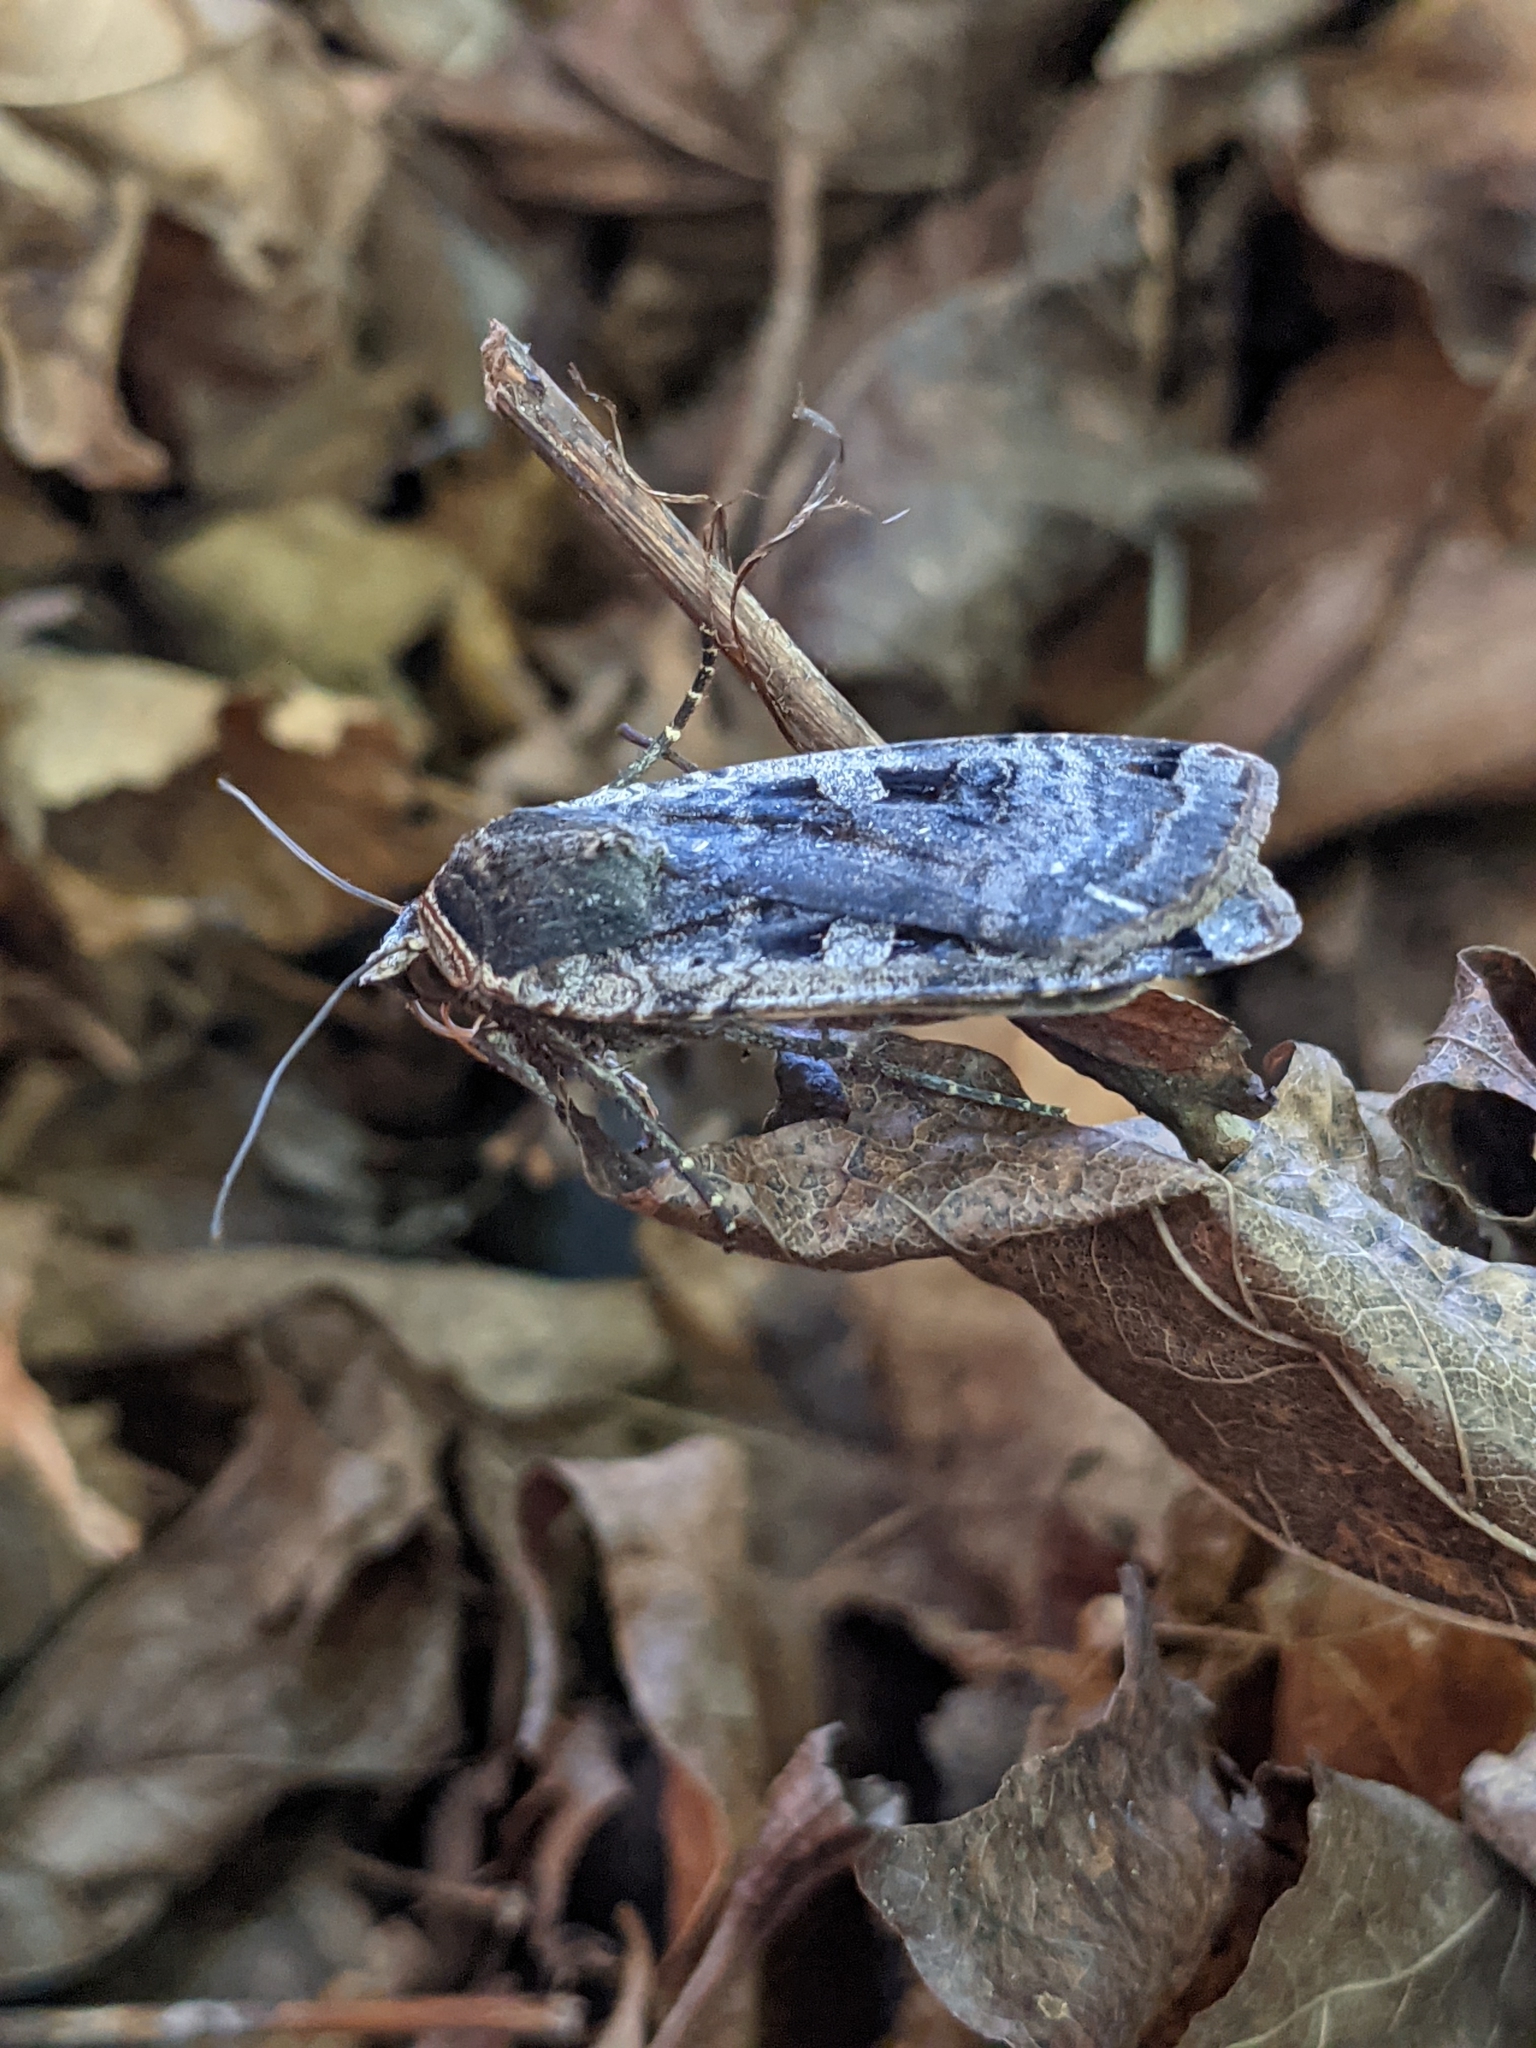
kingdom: Animalia
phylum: Arthropoda
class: Insecta
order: Lepidoptera
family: Noctuidae
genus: Noctua
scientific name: Noctua pronuba
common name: Large yellow underwing
